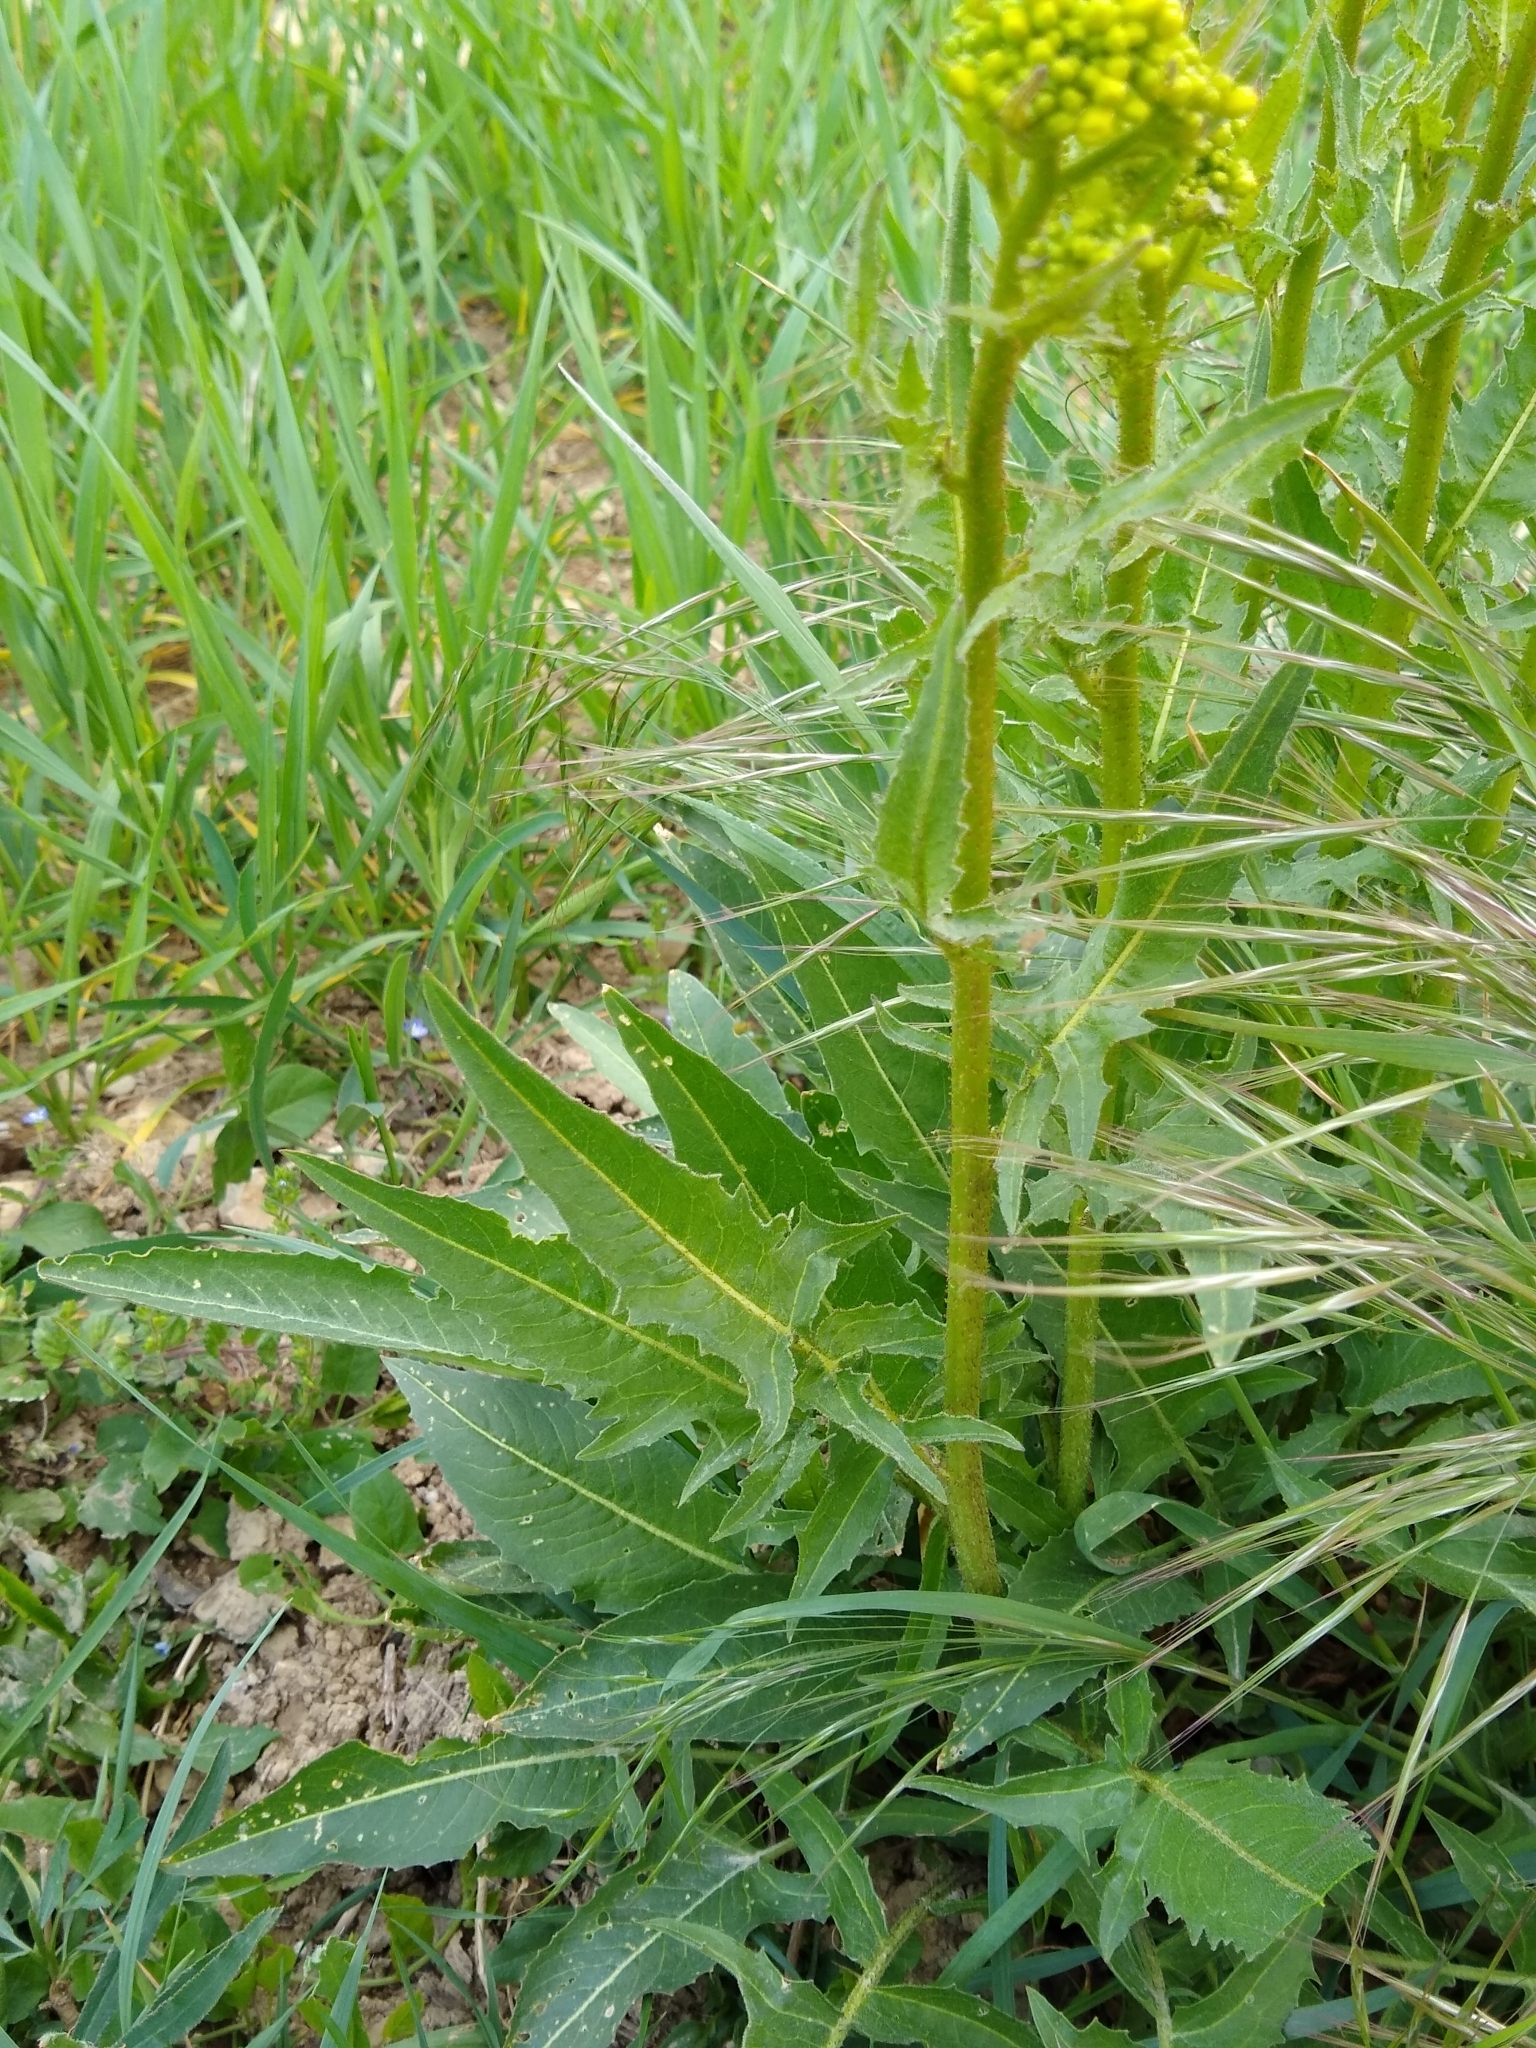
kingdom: Plantae
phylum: Tracheophyta
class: Magnoliopsida
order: Brassicales
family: Brassicaceae
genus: Bunias
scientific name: Bunias orientalis
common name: Warty-cabbage
